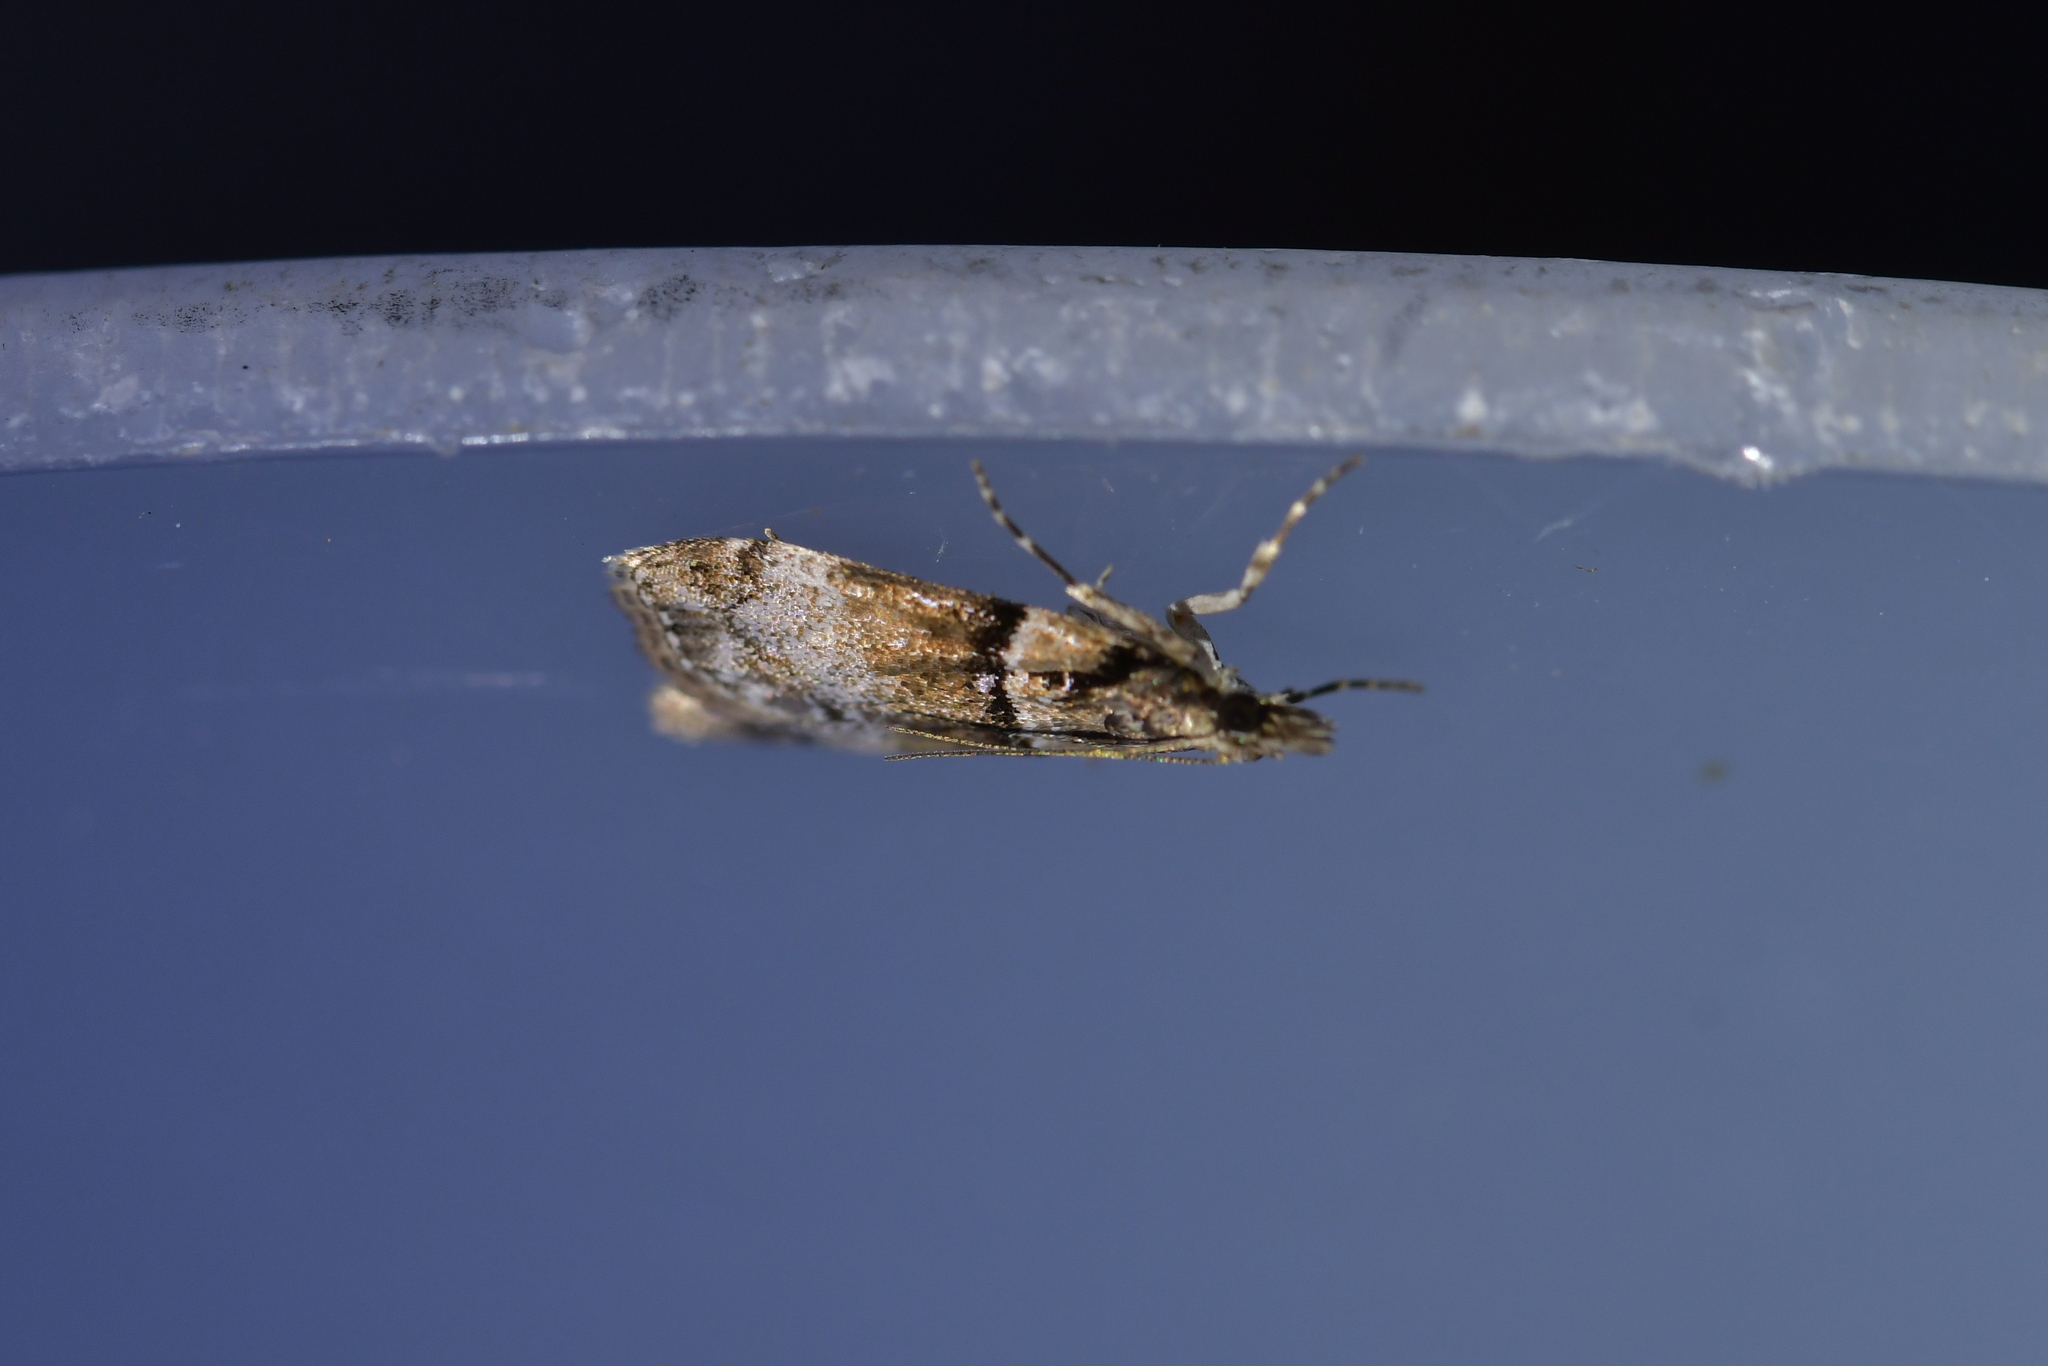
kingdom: Animalia
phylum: Arthropoda
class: Insecta
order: Lepidoptera
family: Crambidae
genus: Eudonia
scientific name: Eudonia colpota
